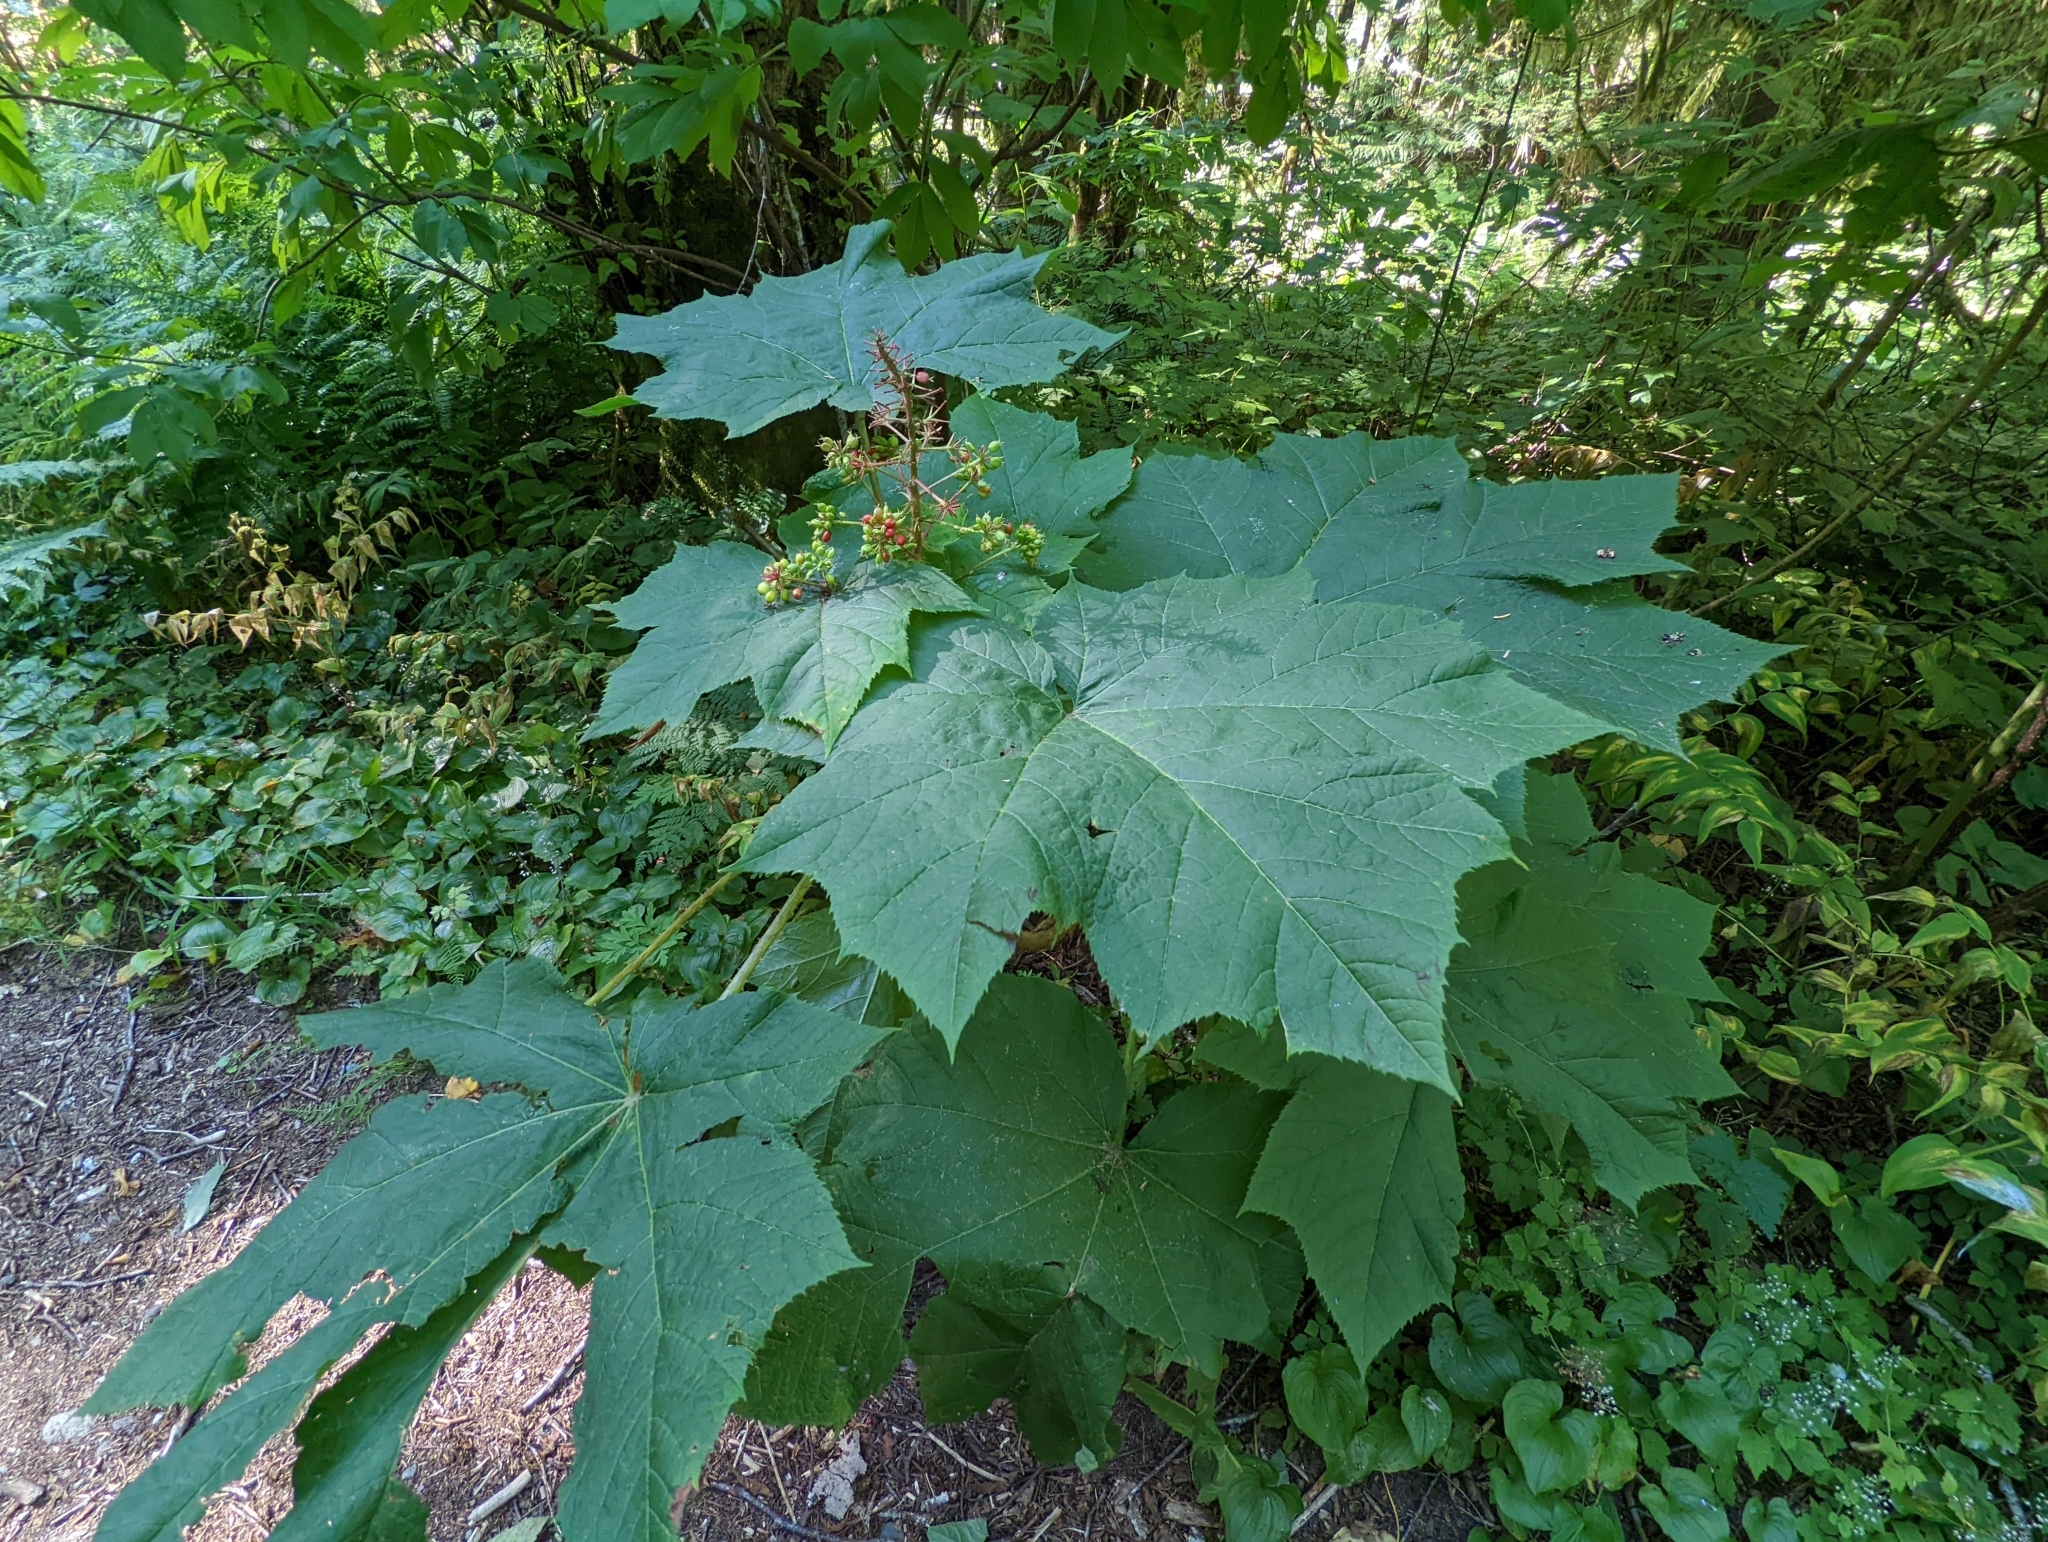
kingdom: Plantae
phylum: Tracheophyta
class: Magnoliopsida
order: Apiales
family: Araliaceae
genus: Oplopanax
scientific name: Oplopanax horridus
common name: Devil's walking-stick
